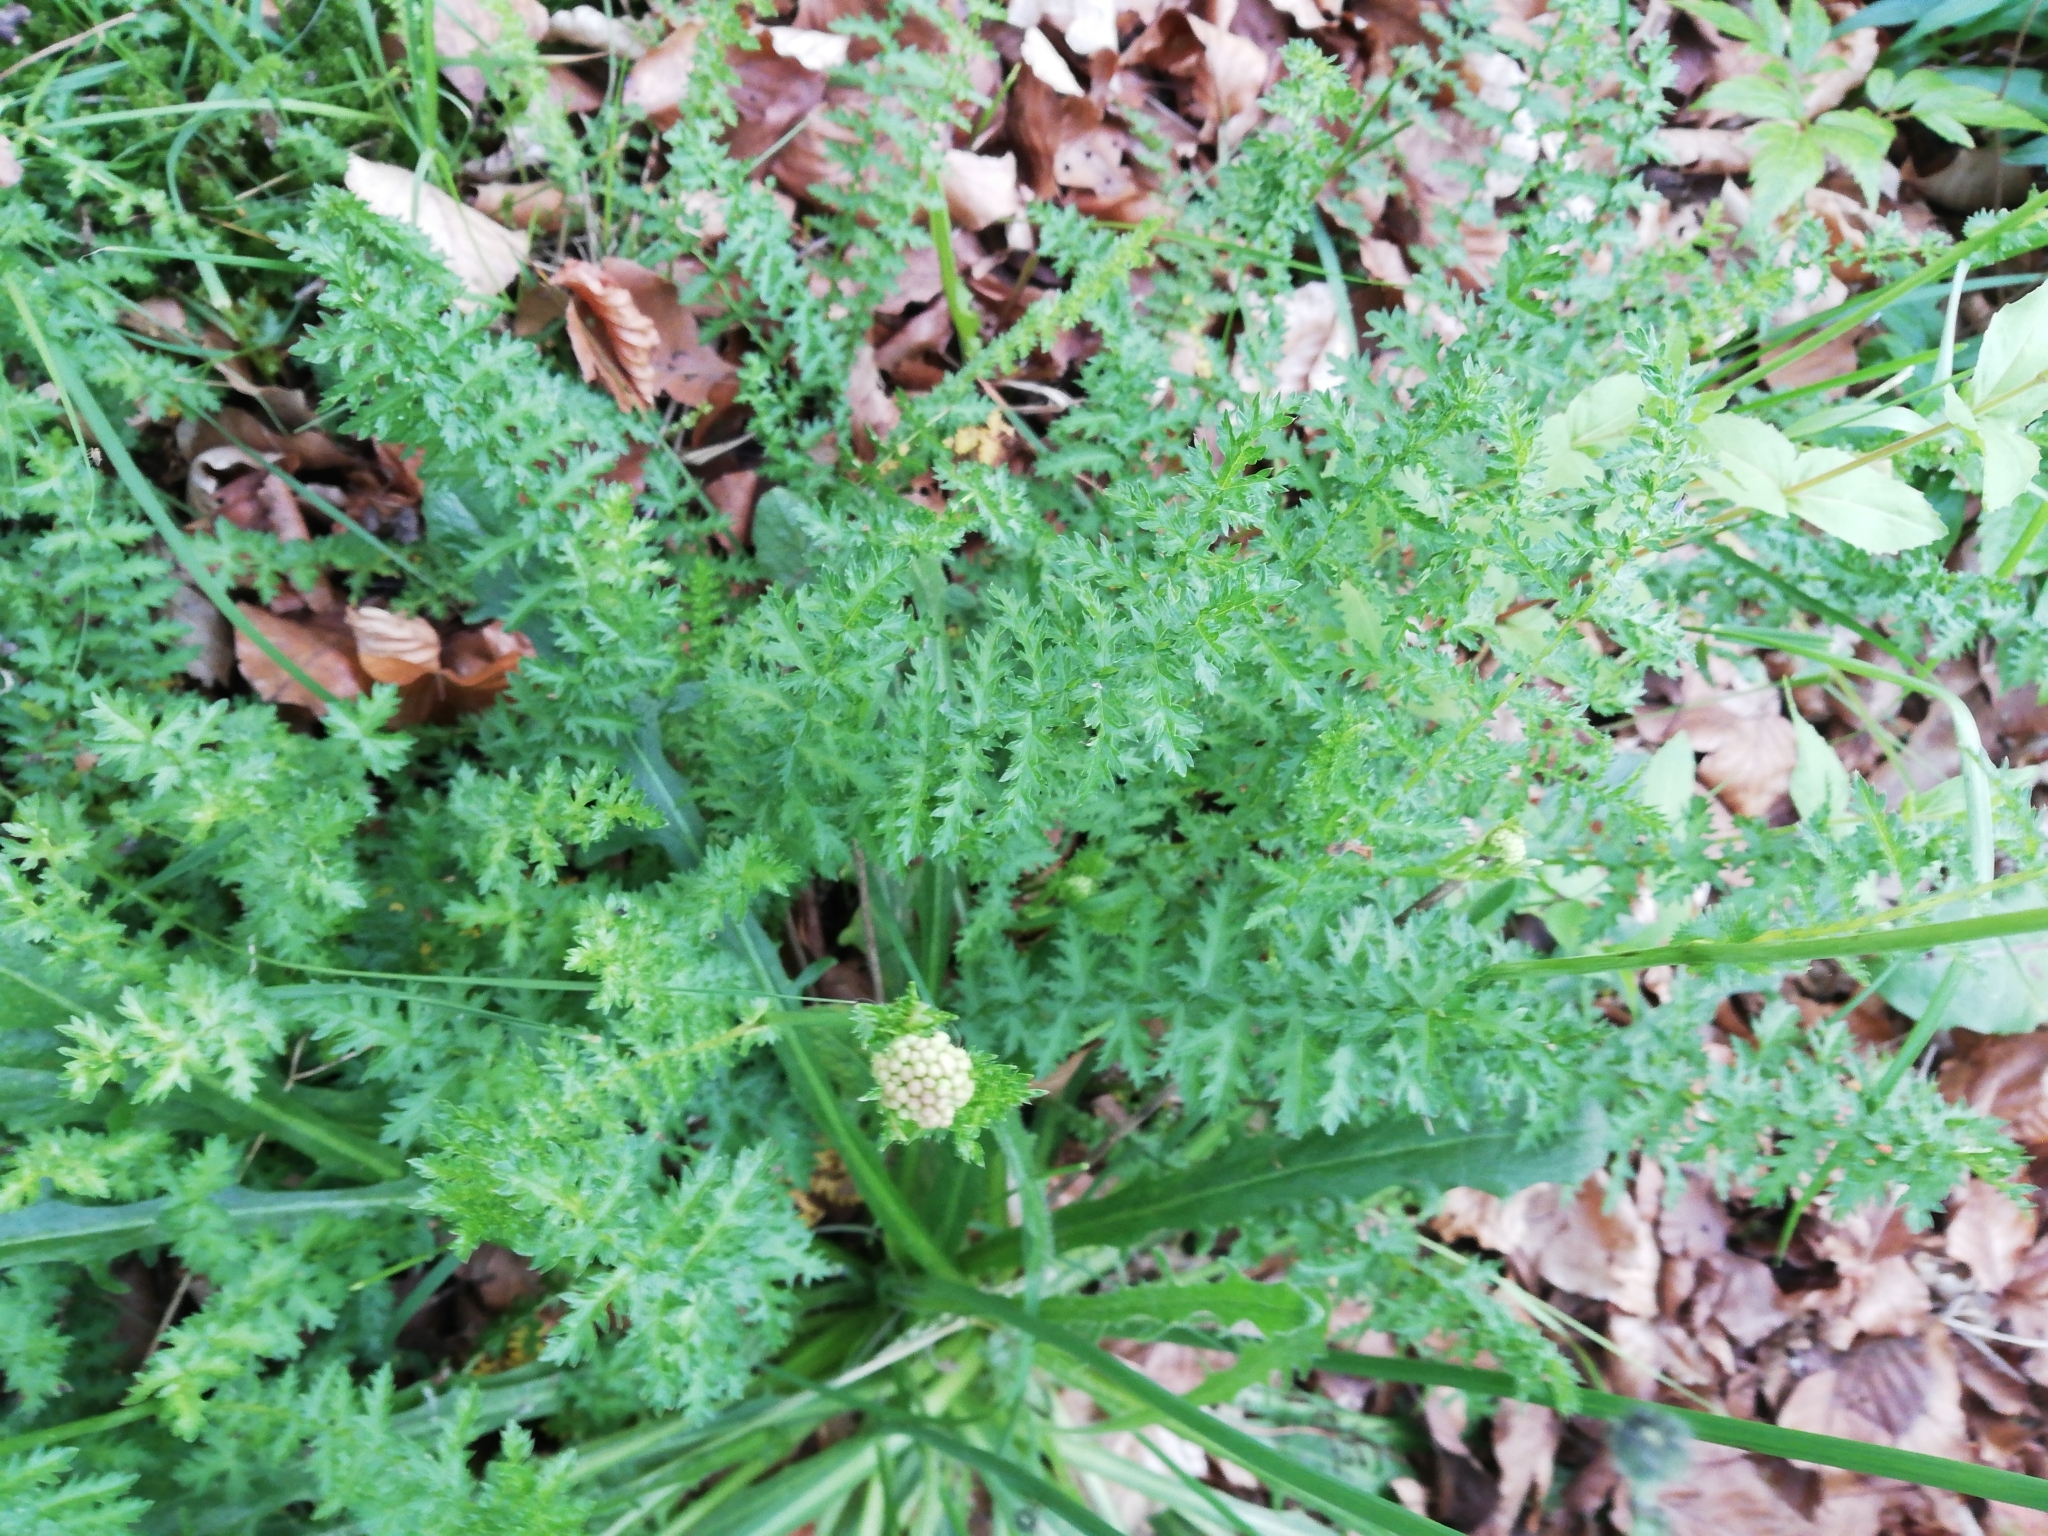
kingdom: Plantae
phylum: Tracheophyta
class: Magnoliopsida
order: Rosales
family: Rosaceae
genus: Filipendula
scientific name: Filipendula vulgaris
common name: Dropwort
